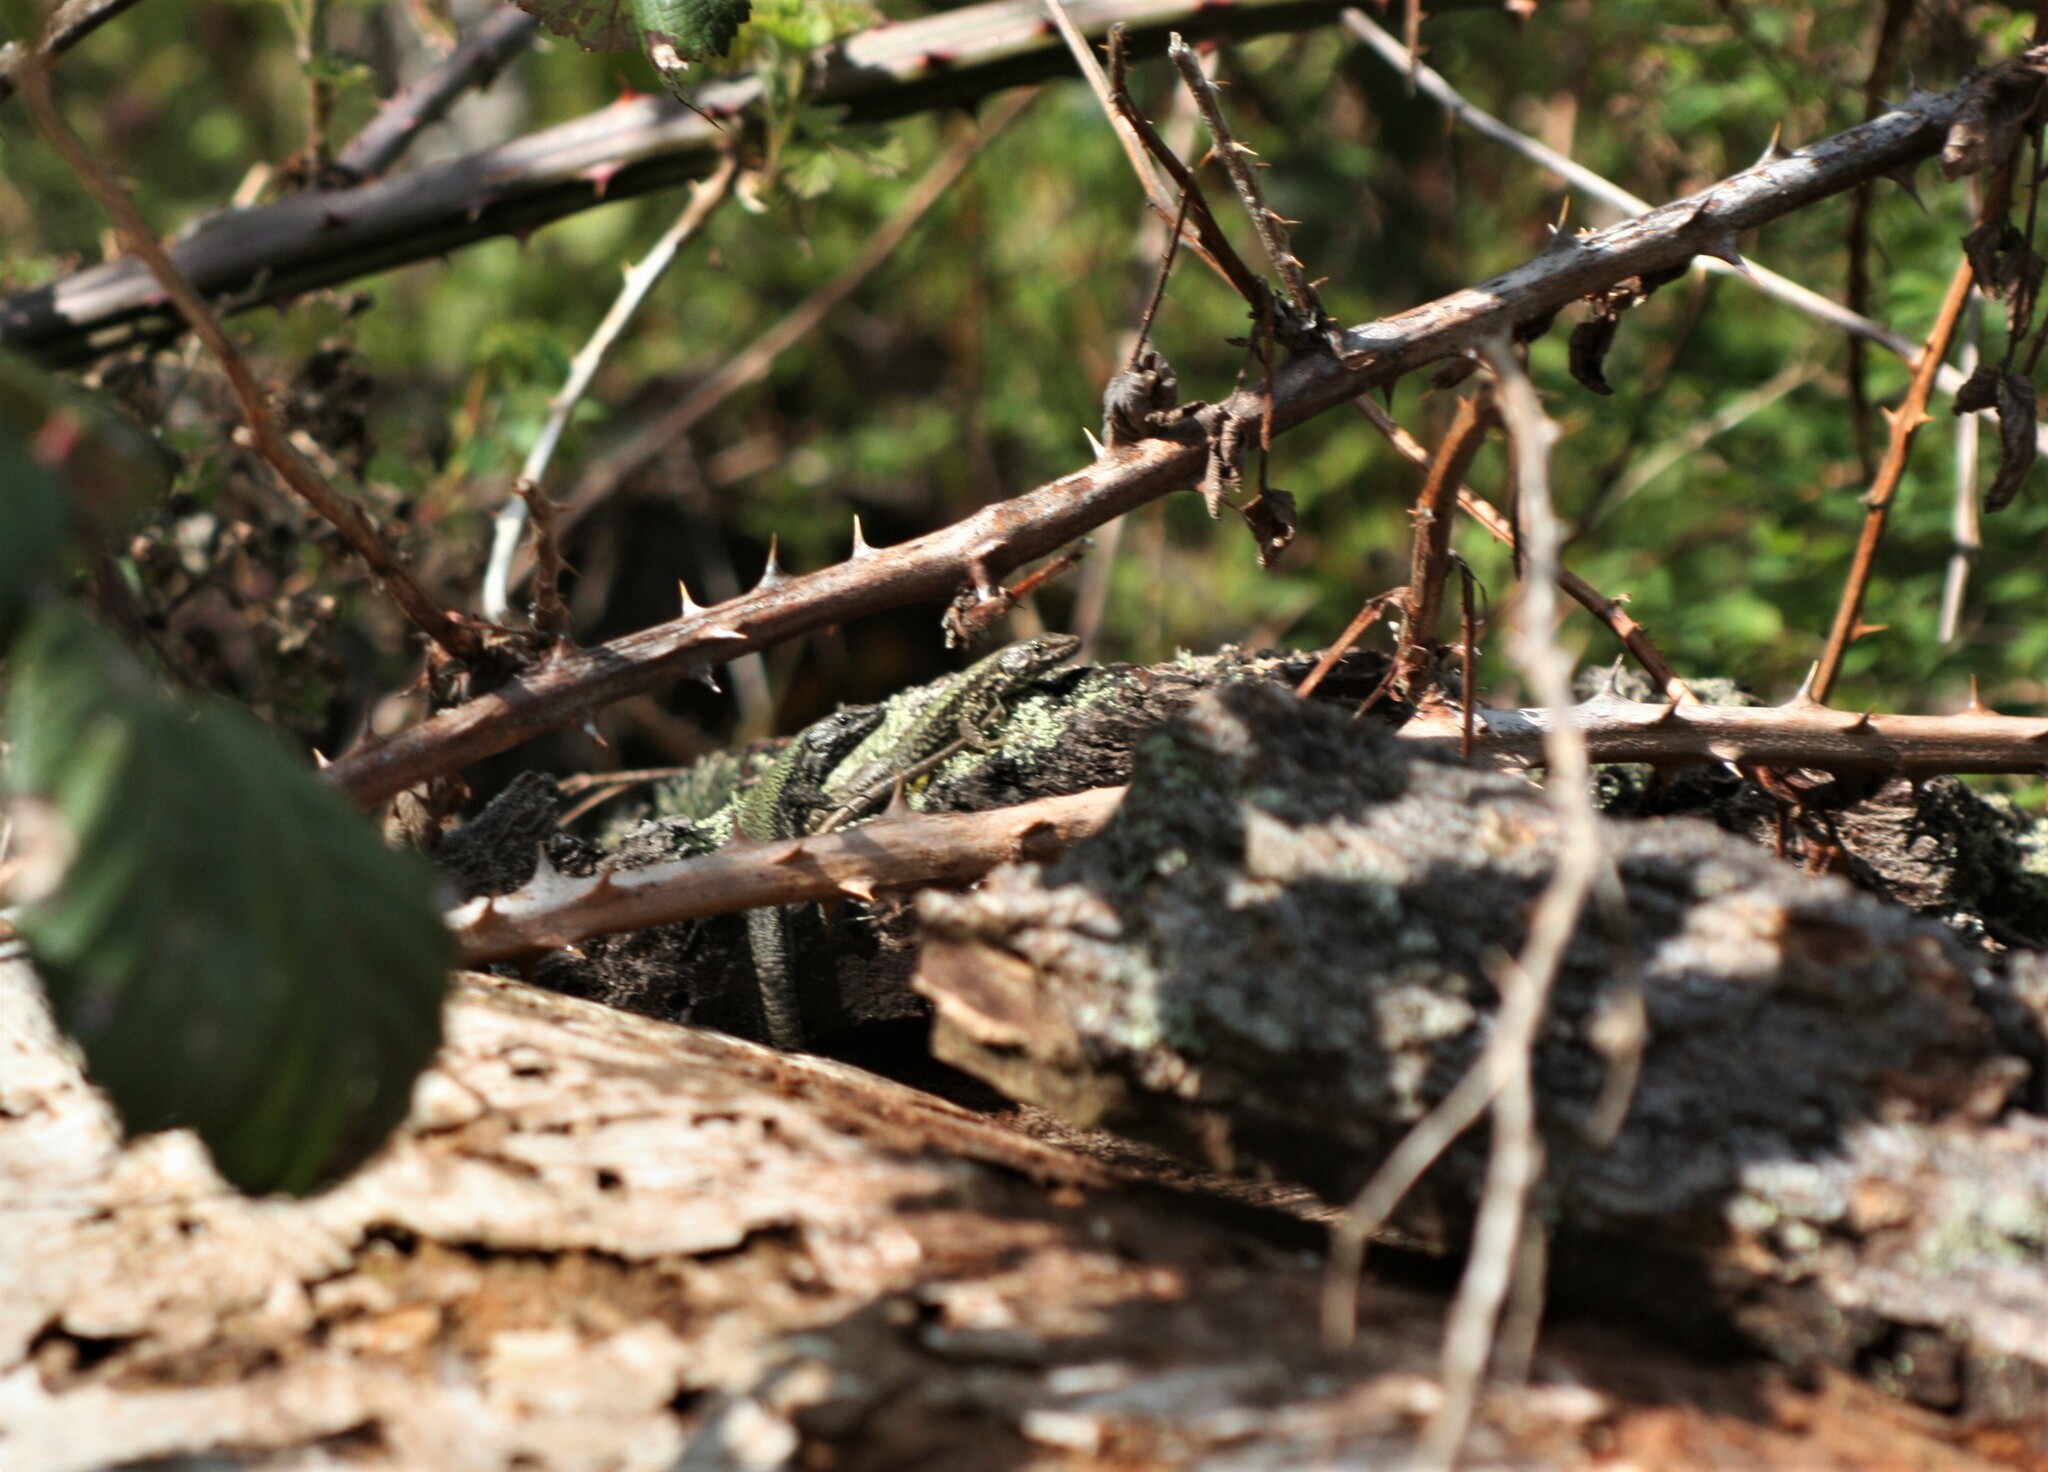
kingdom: Animalia
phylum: Chordata
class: Squamata
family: Lacertidae
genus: Podarcis
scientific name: Podarcis muralis
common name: Common wall lizard
